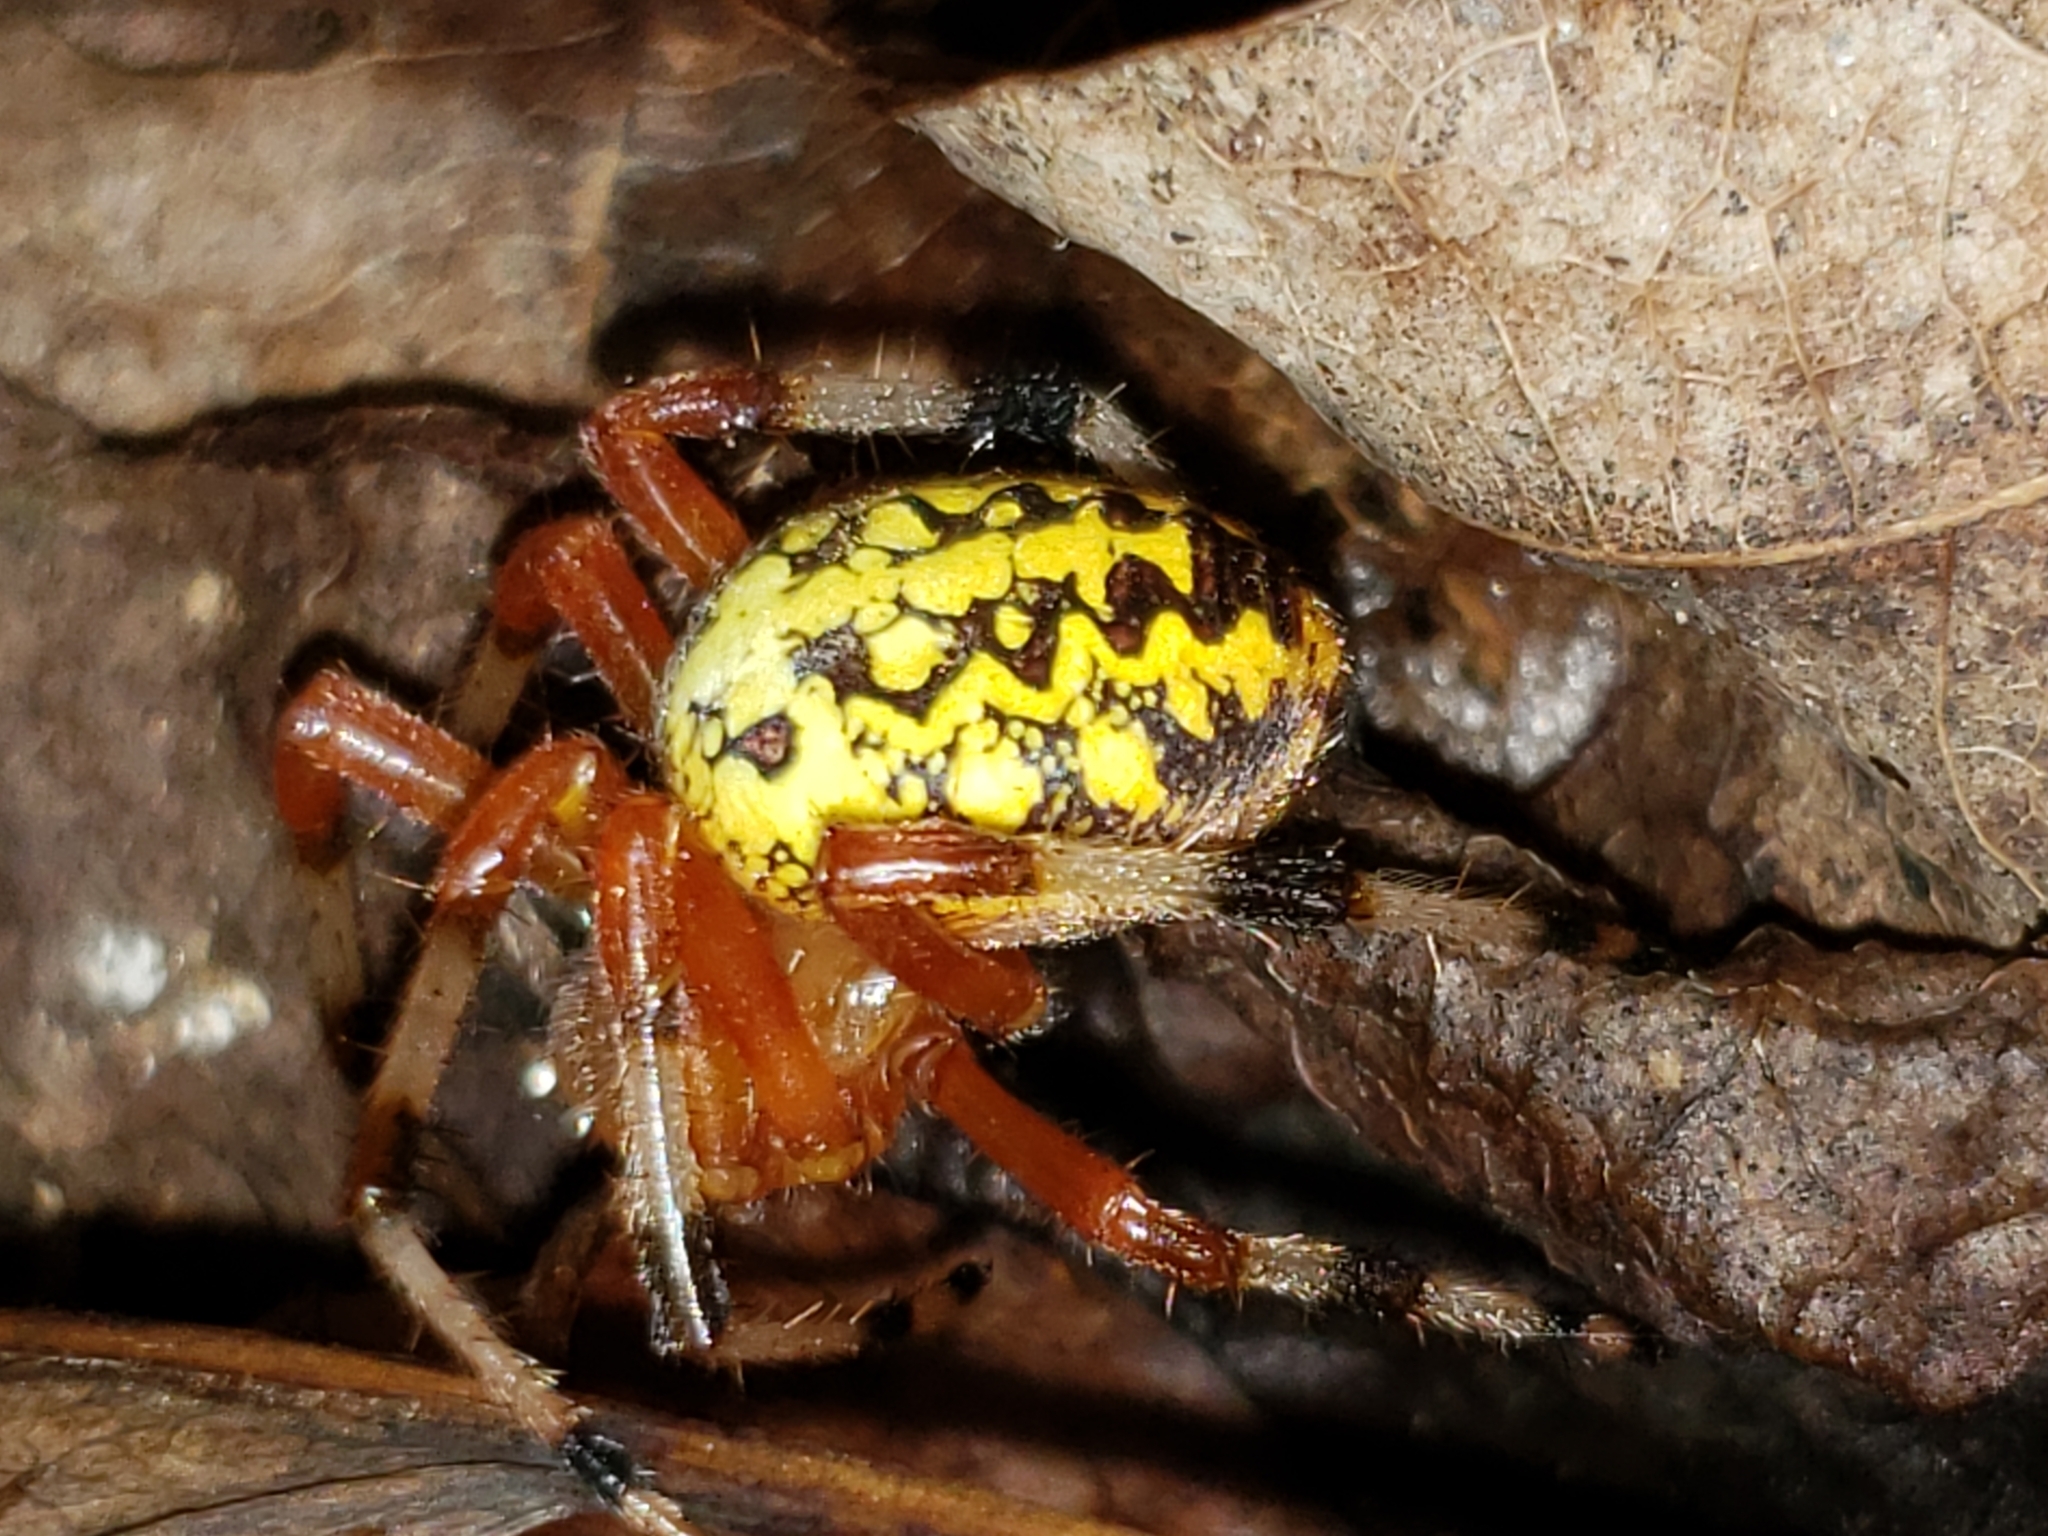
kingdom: Animalia
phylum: Arthropoda
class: Arachnida
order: Araneae
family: Araneidae
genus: Araneus
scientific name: Araneus marmoreus
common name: Marbled orbweaver
